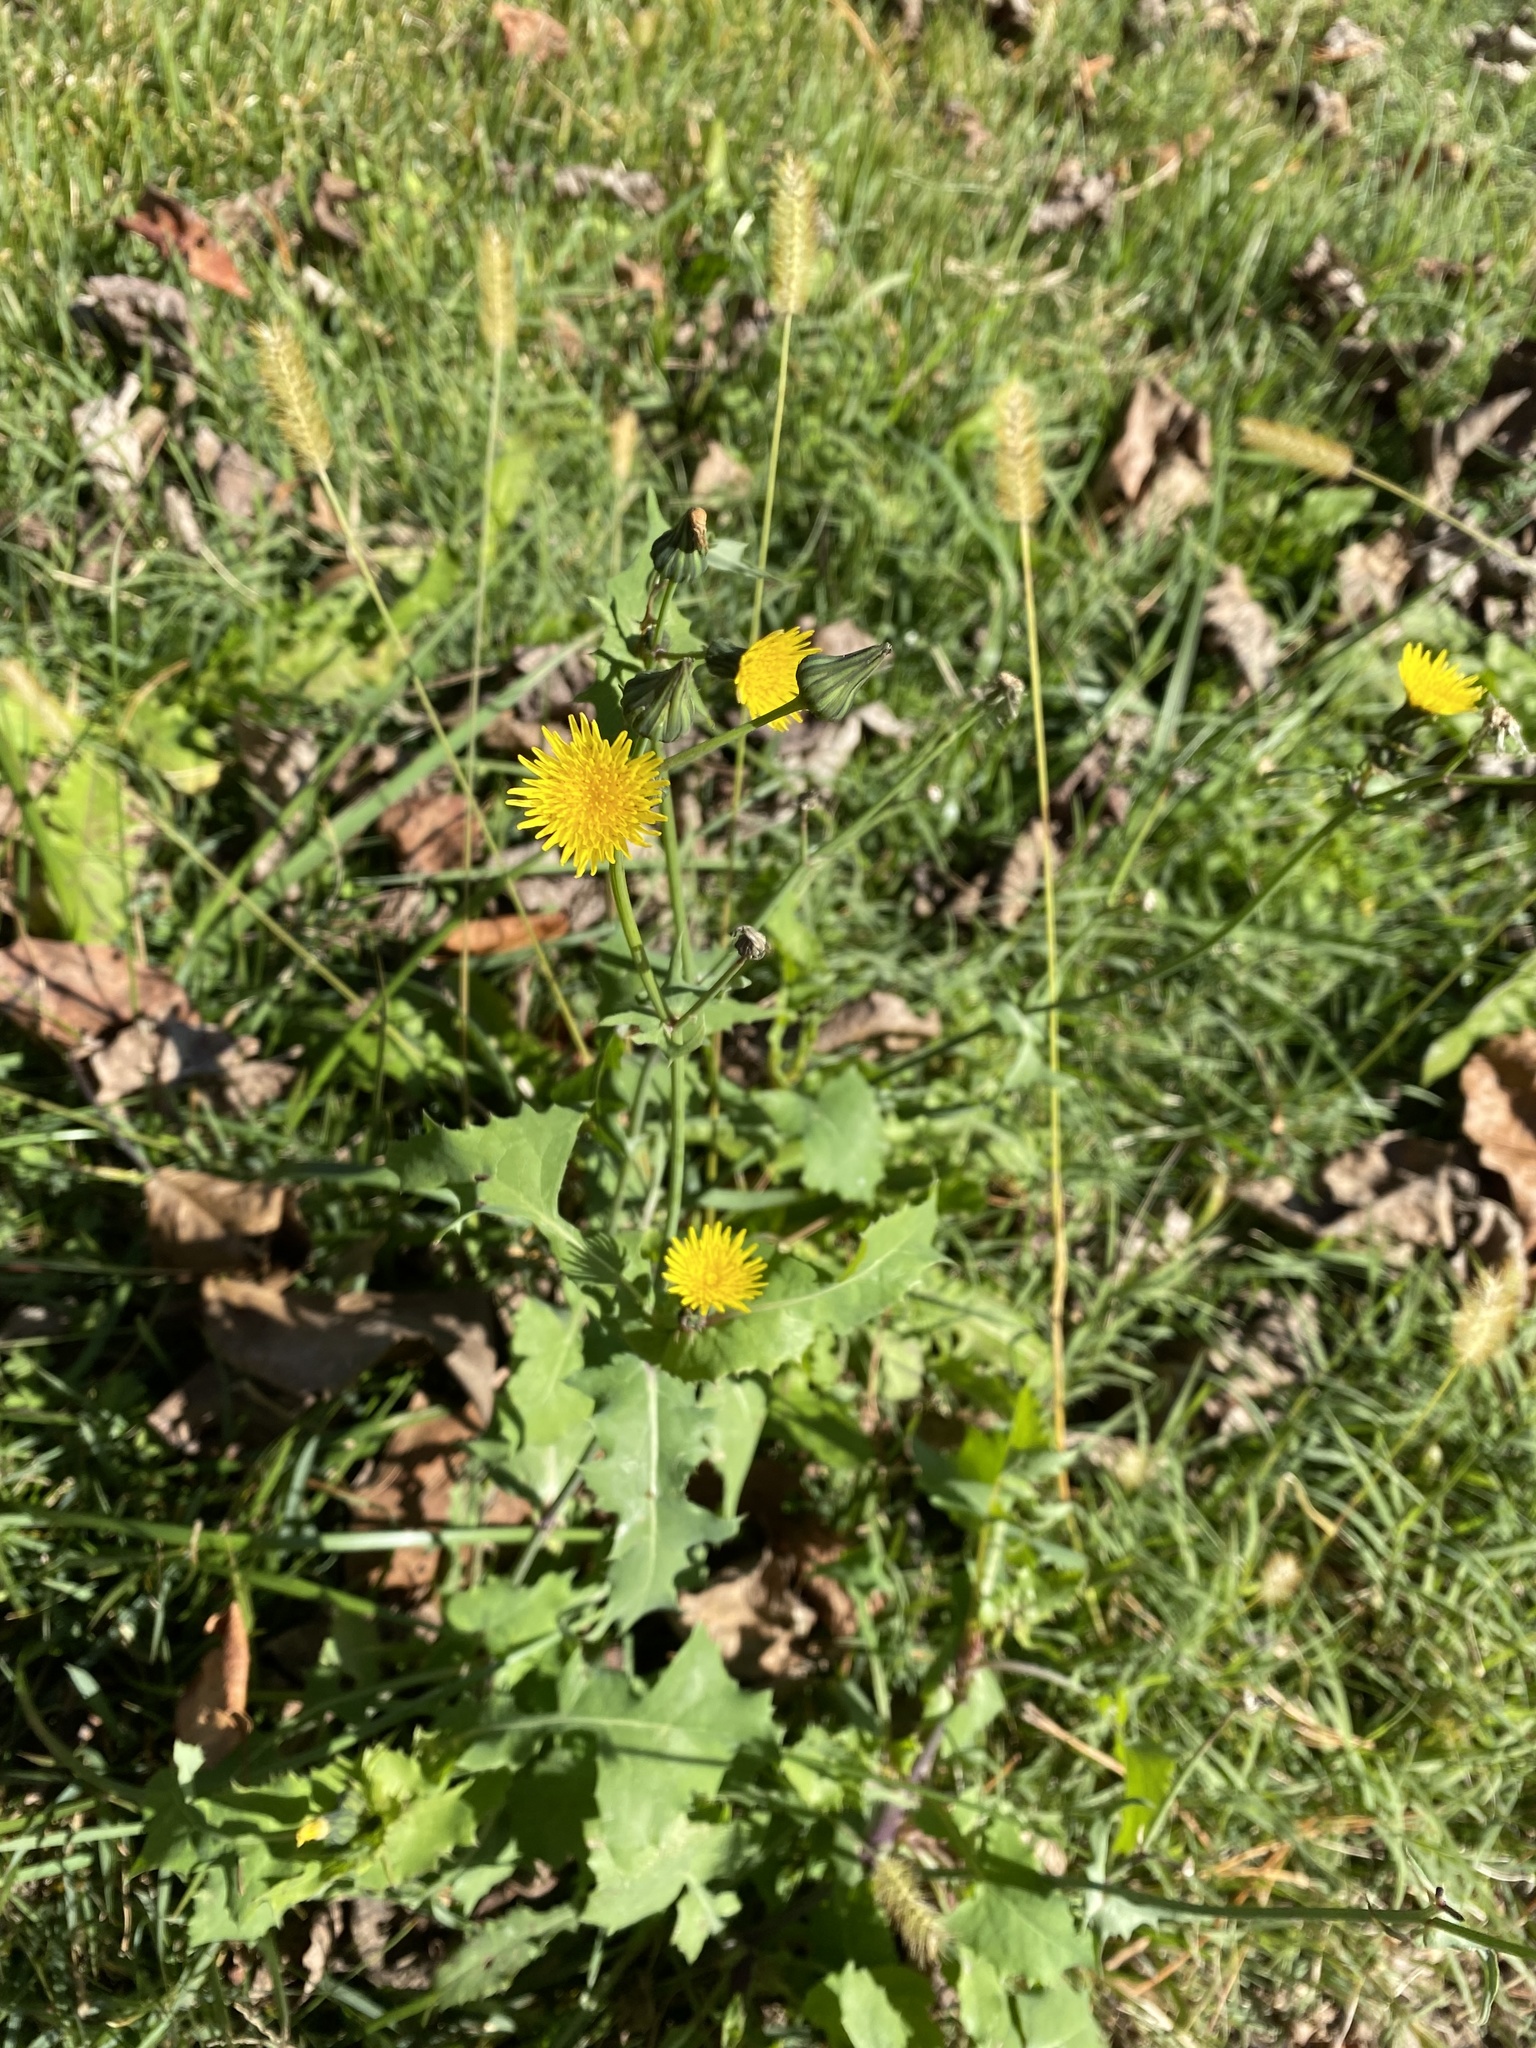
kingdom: Plantae
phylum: Tracheophyta
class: Magnoliopsida
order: Asterales
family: Asteraceae
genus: Sonchus
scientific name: Sonchus oleraceus
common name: Common sowthistle
